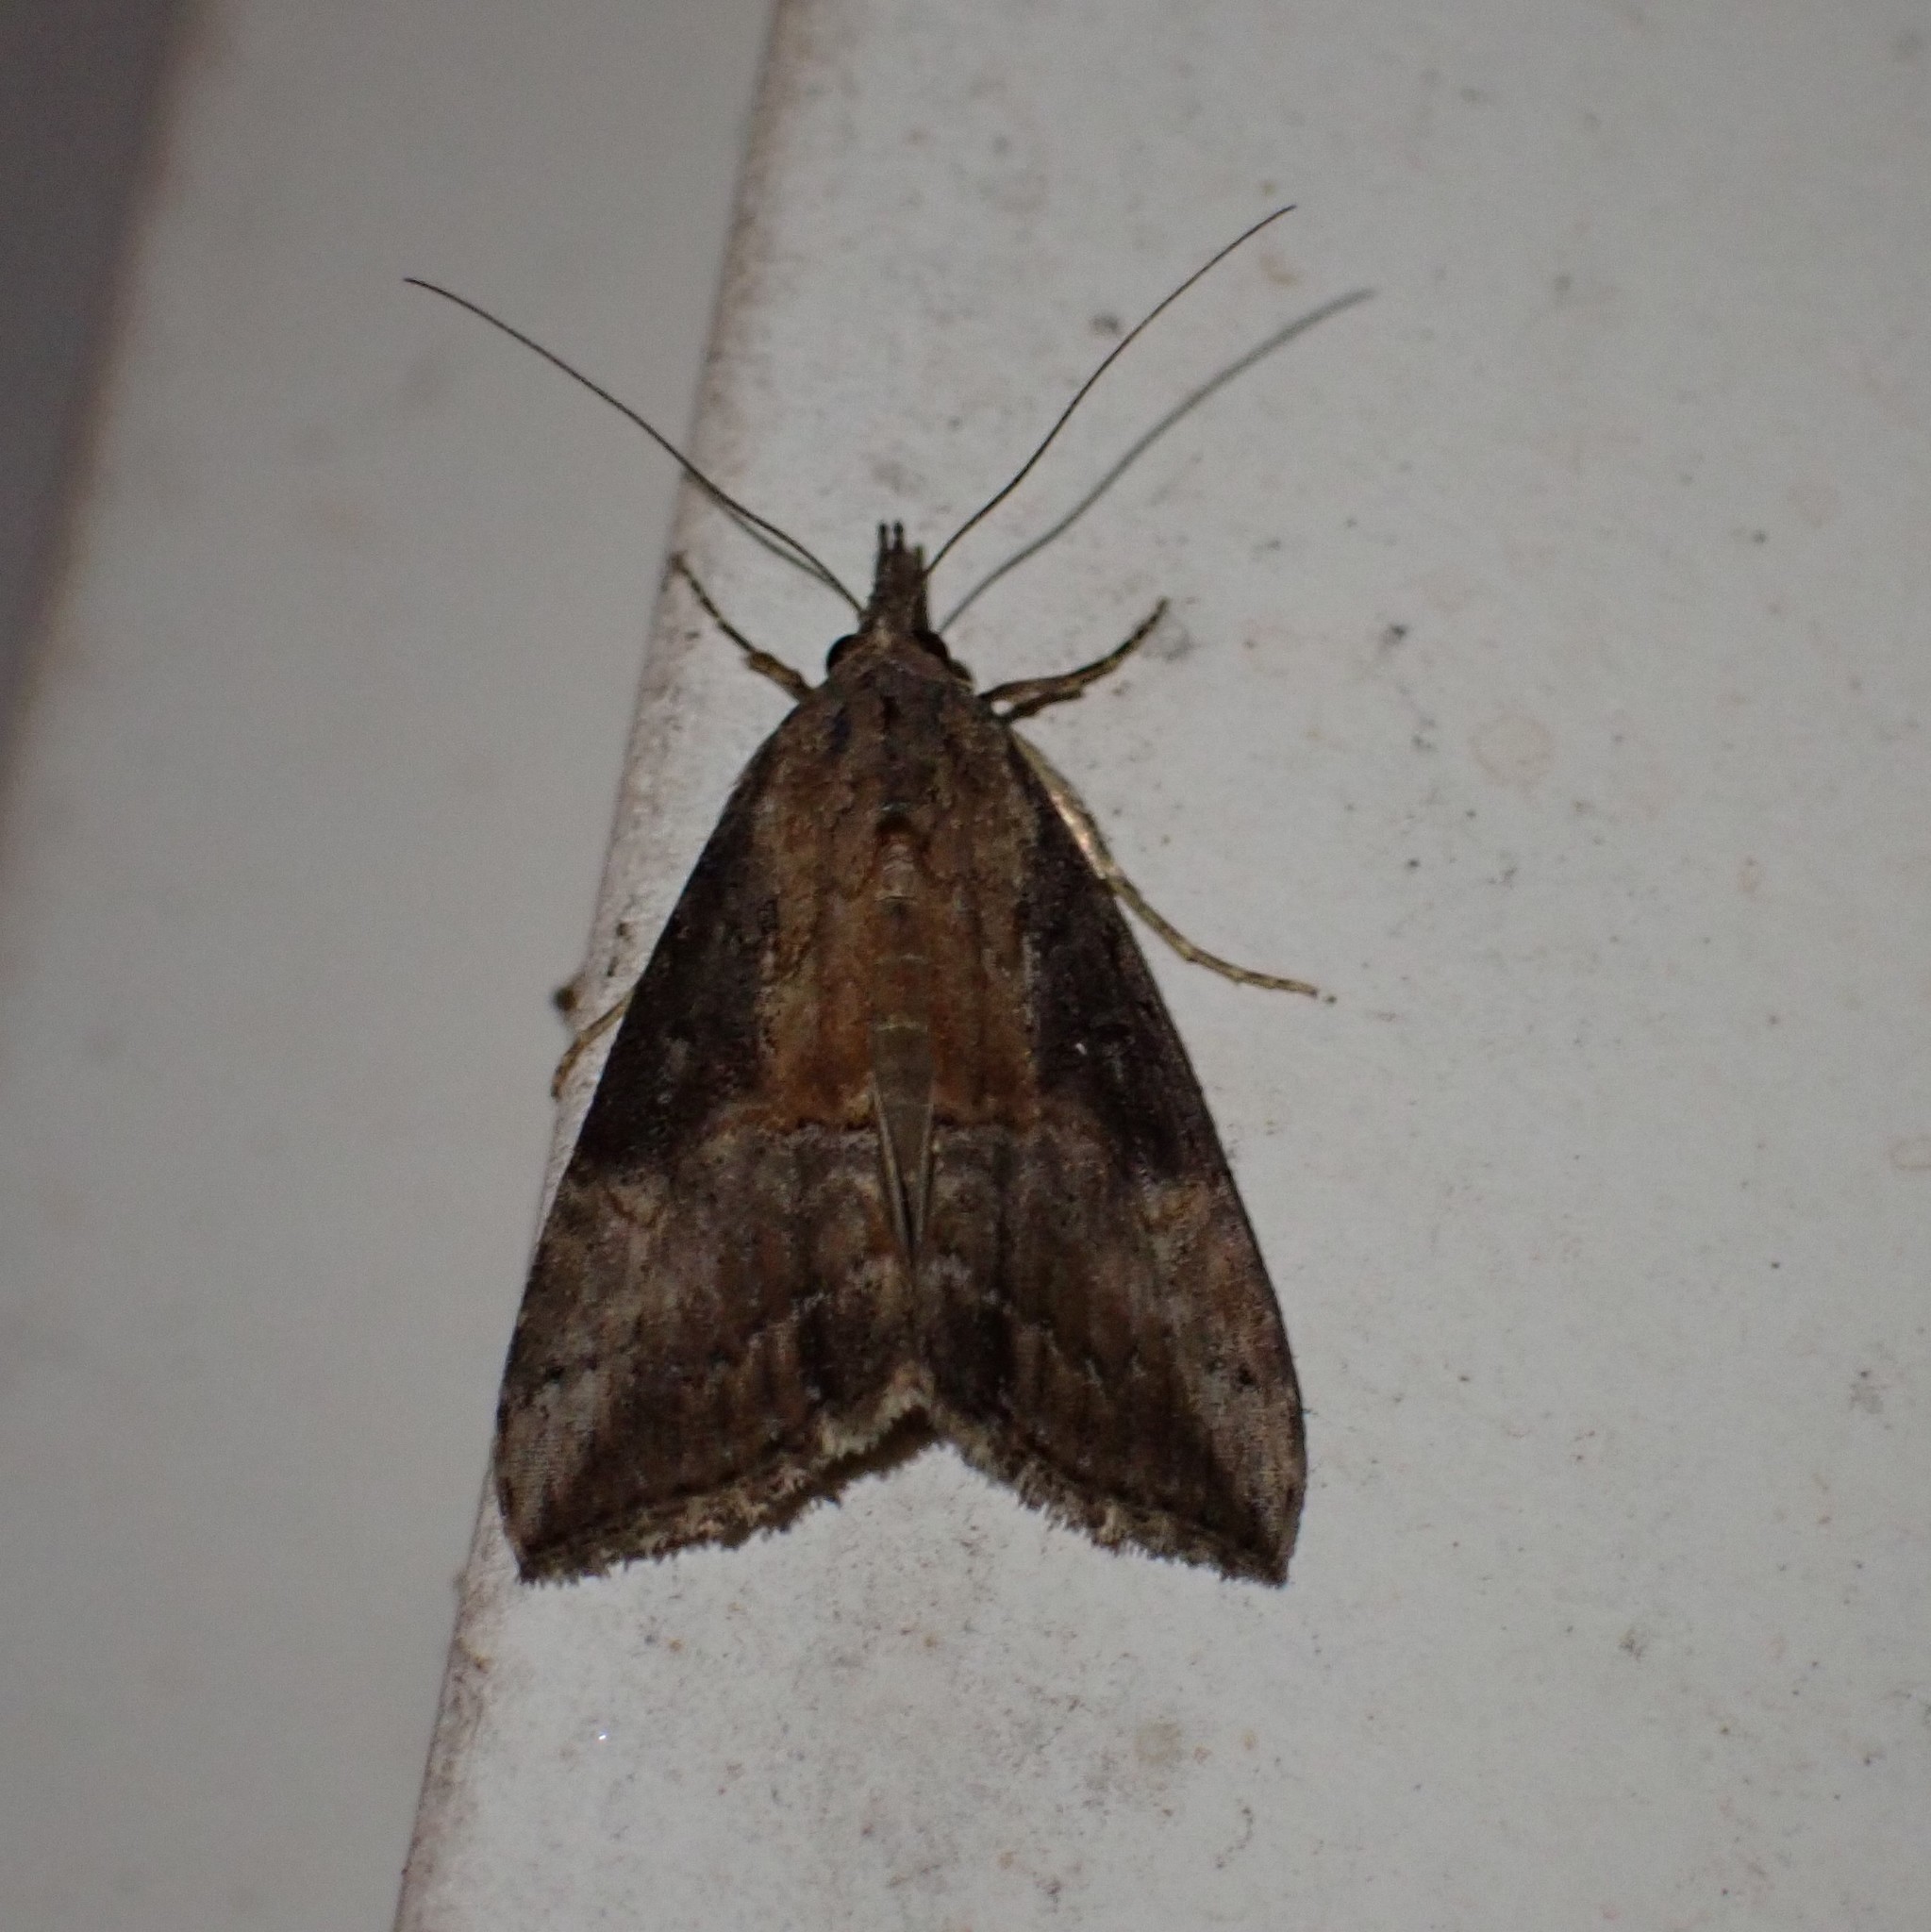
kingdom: Animalia
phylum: Arthropoda
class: Insecta
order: Lepidoptera
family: Erebidae
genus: Hypena
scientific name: Hypena scabra
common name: Green cloverworm
